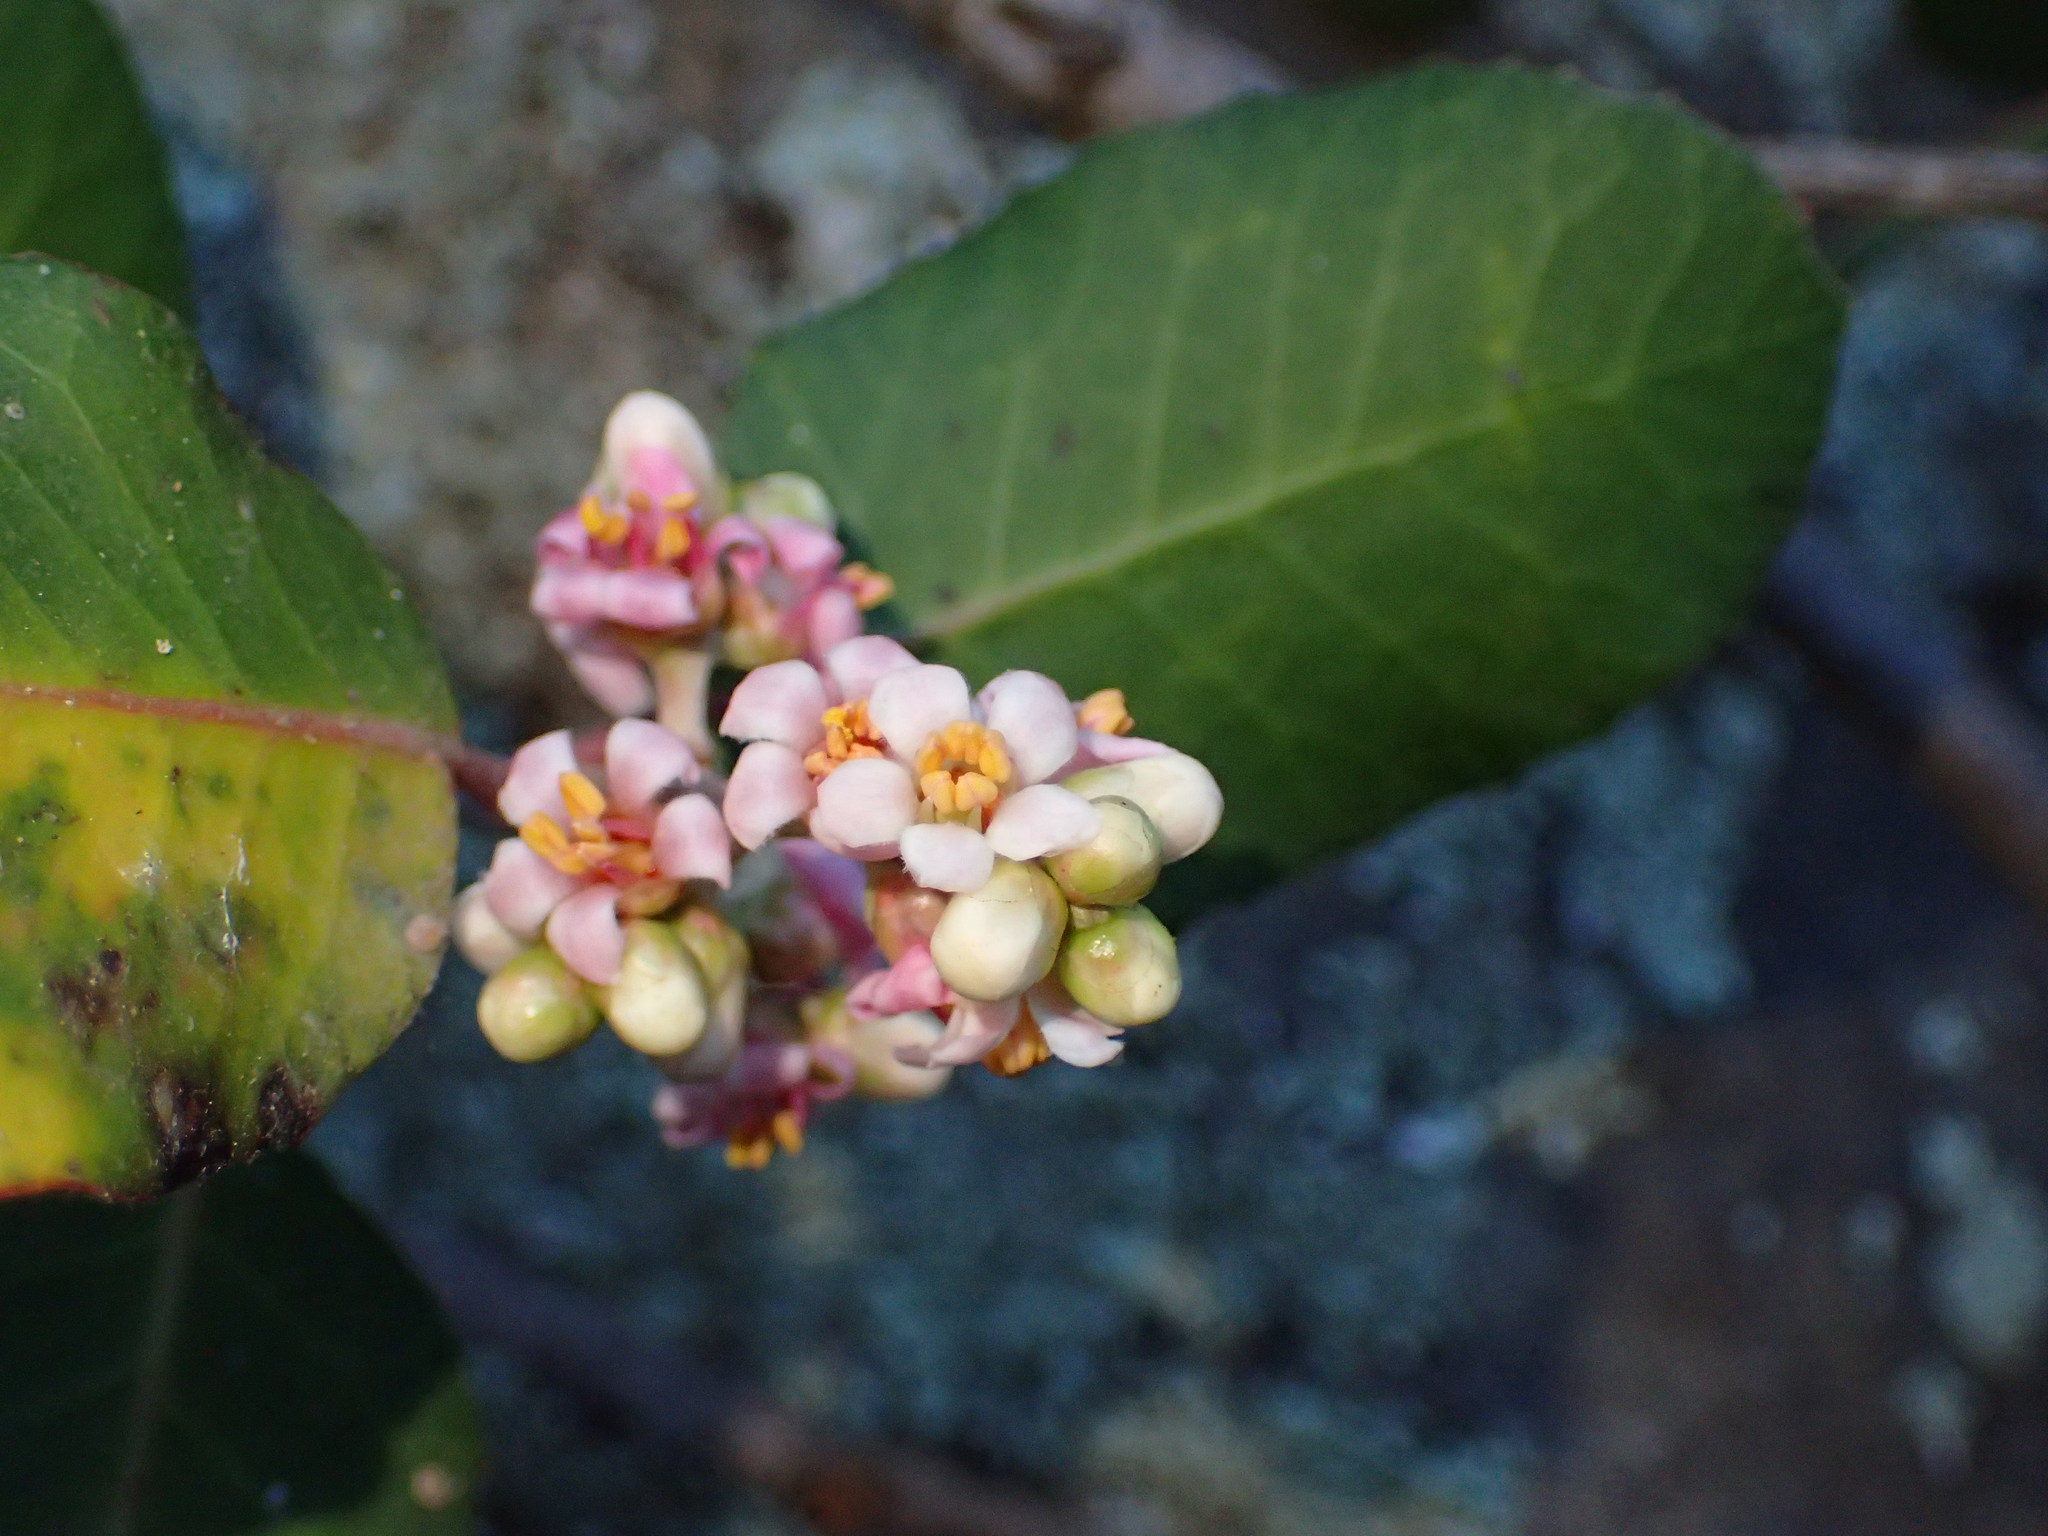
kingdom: Plantae
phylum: Tracheophyta
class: Magnoliopsida
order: Sapindales
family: Anacardiaceae
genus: Rhus
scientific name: Rhus integrifolia
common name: Lemonade sumac
